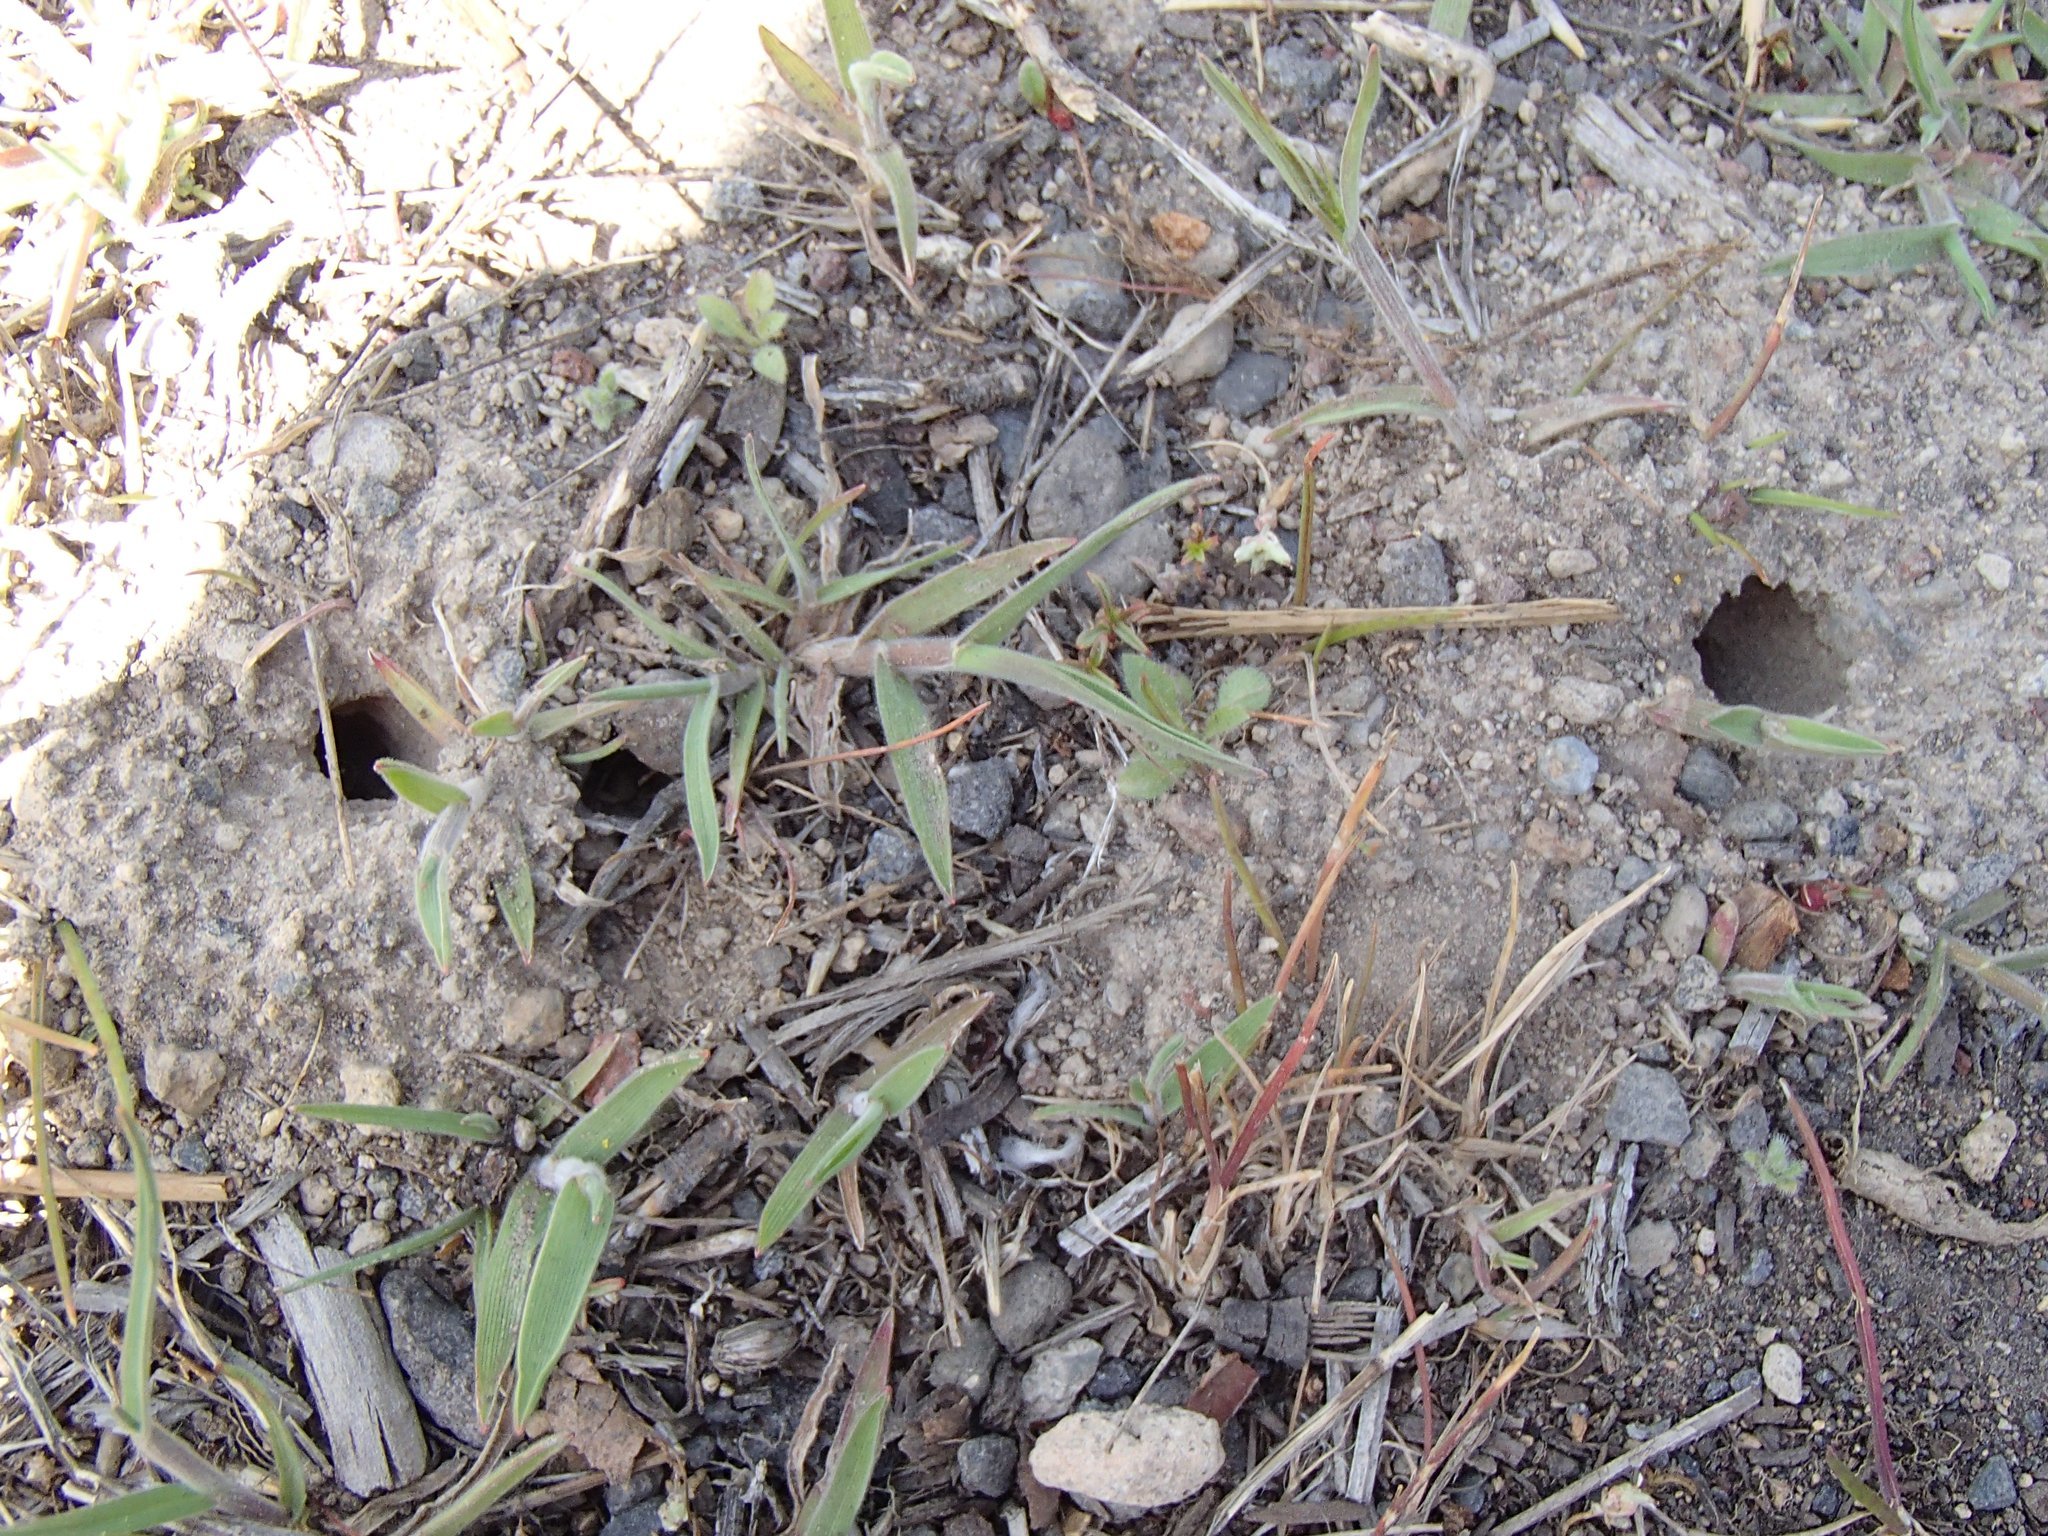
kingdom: Animalia
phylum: Arthropoda
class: Insecta
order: Hymenoptera
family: Halictidae
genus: Halictus
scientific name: Halictus rubicundus
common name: Orange-legged furrow bee
